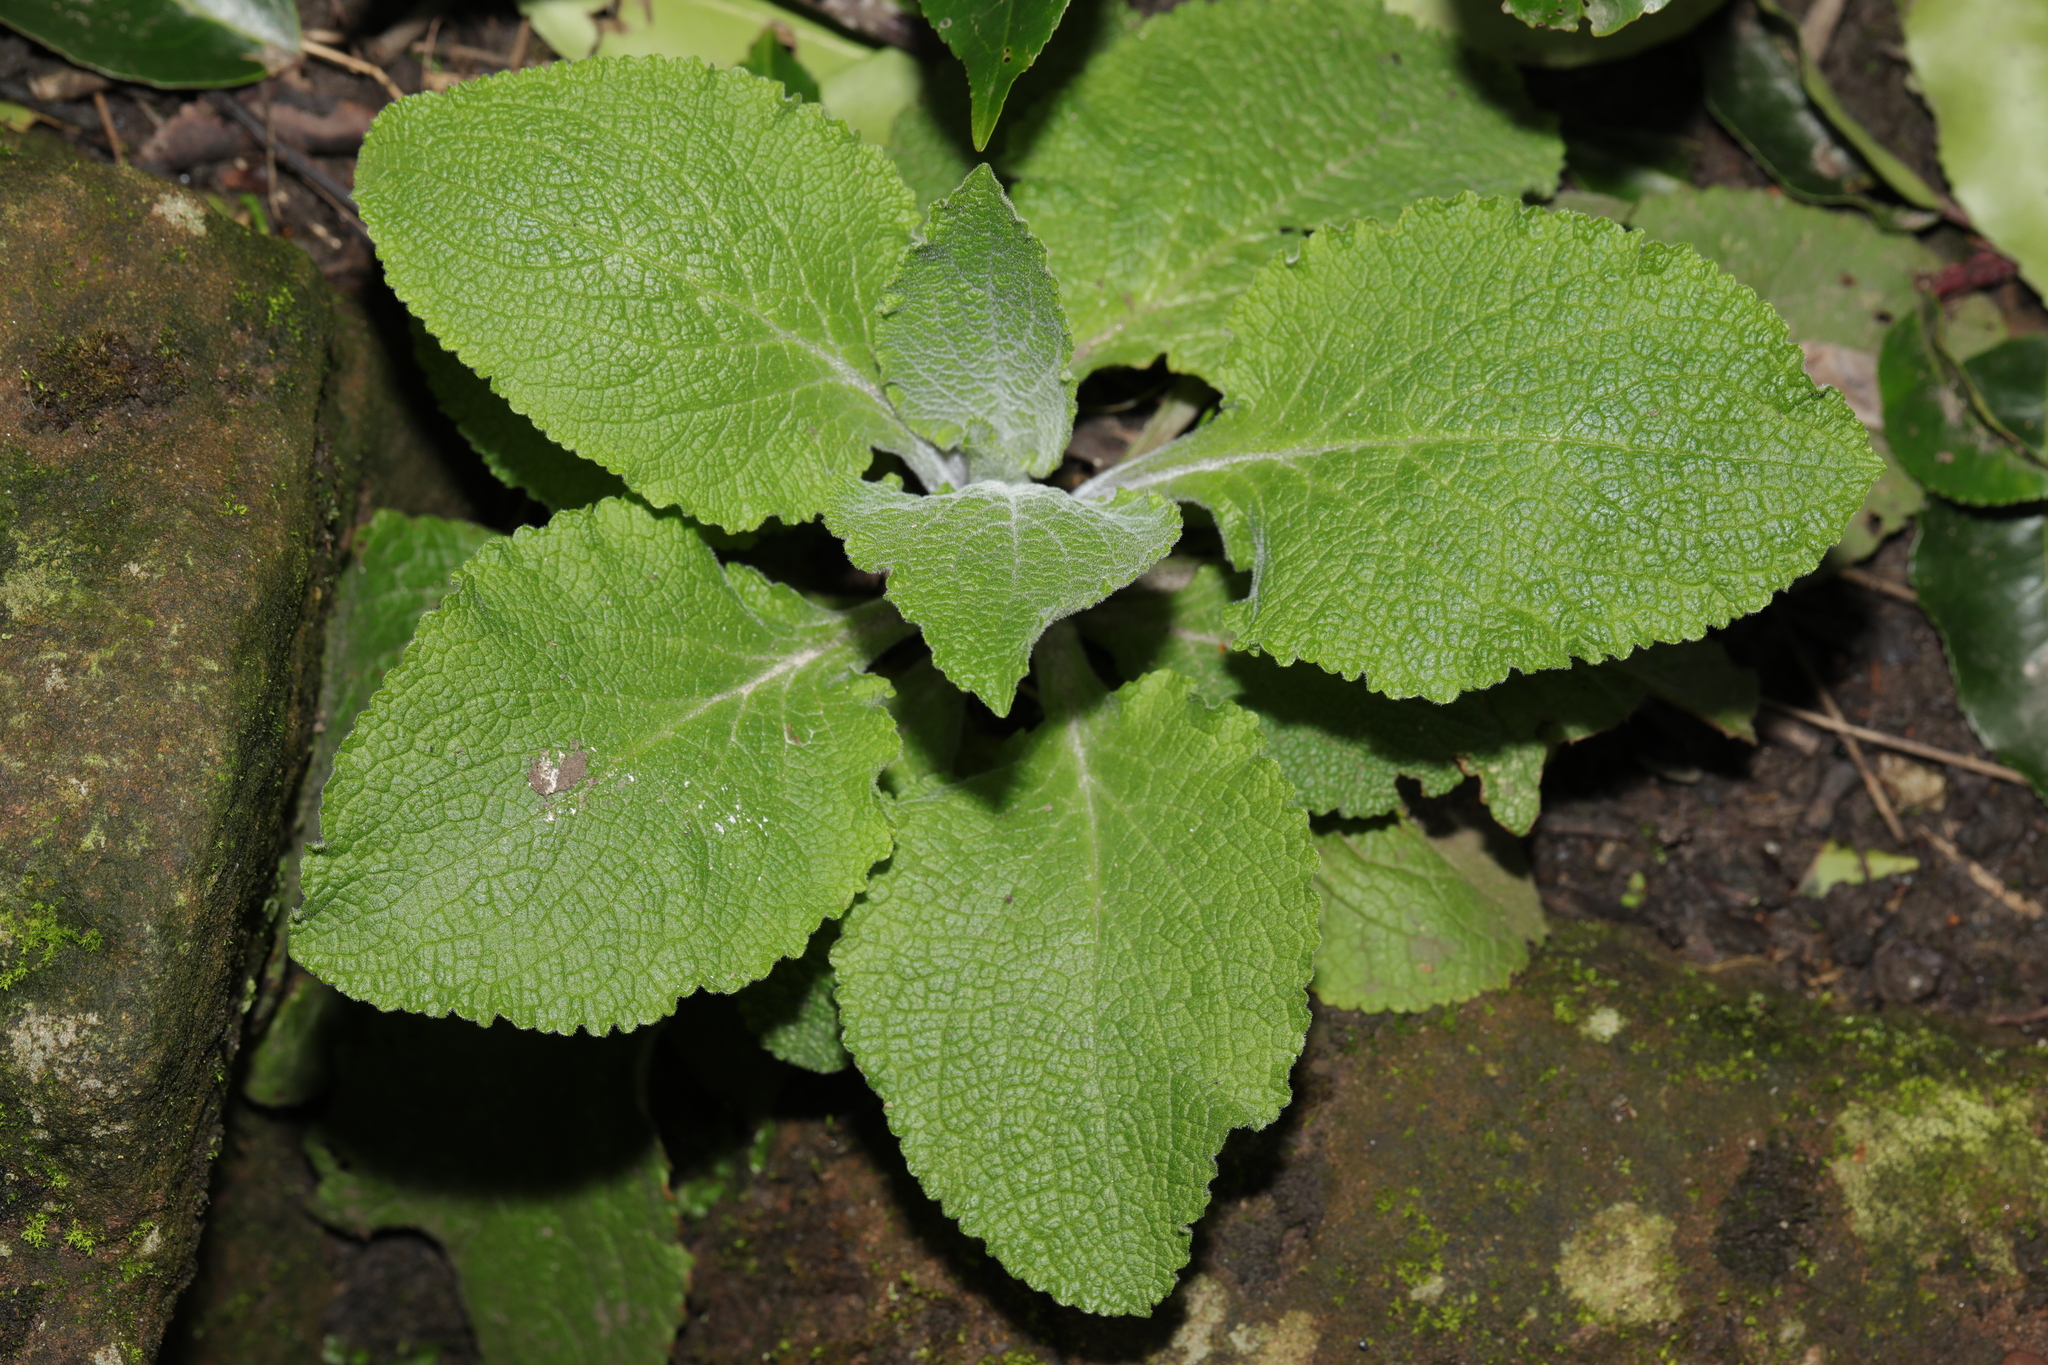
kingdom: Plantae
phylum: Tracheophyta
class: Magnoliopsida
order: Lamiales
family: Plantaginaceae
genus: Digitalis
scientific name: Digitalis purpurea
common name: Foxglove
